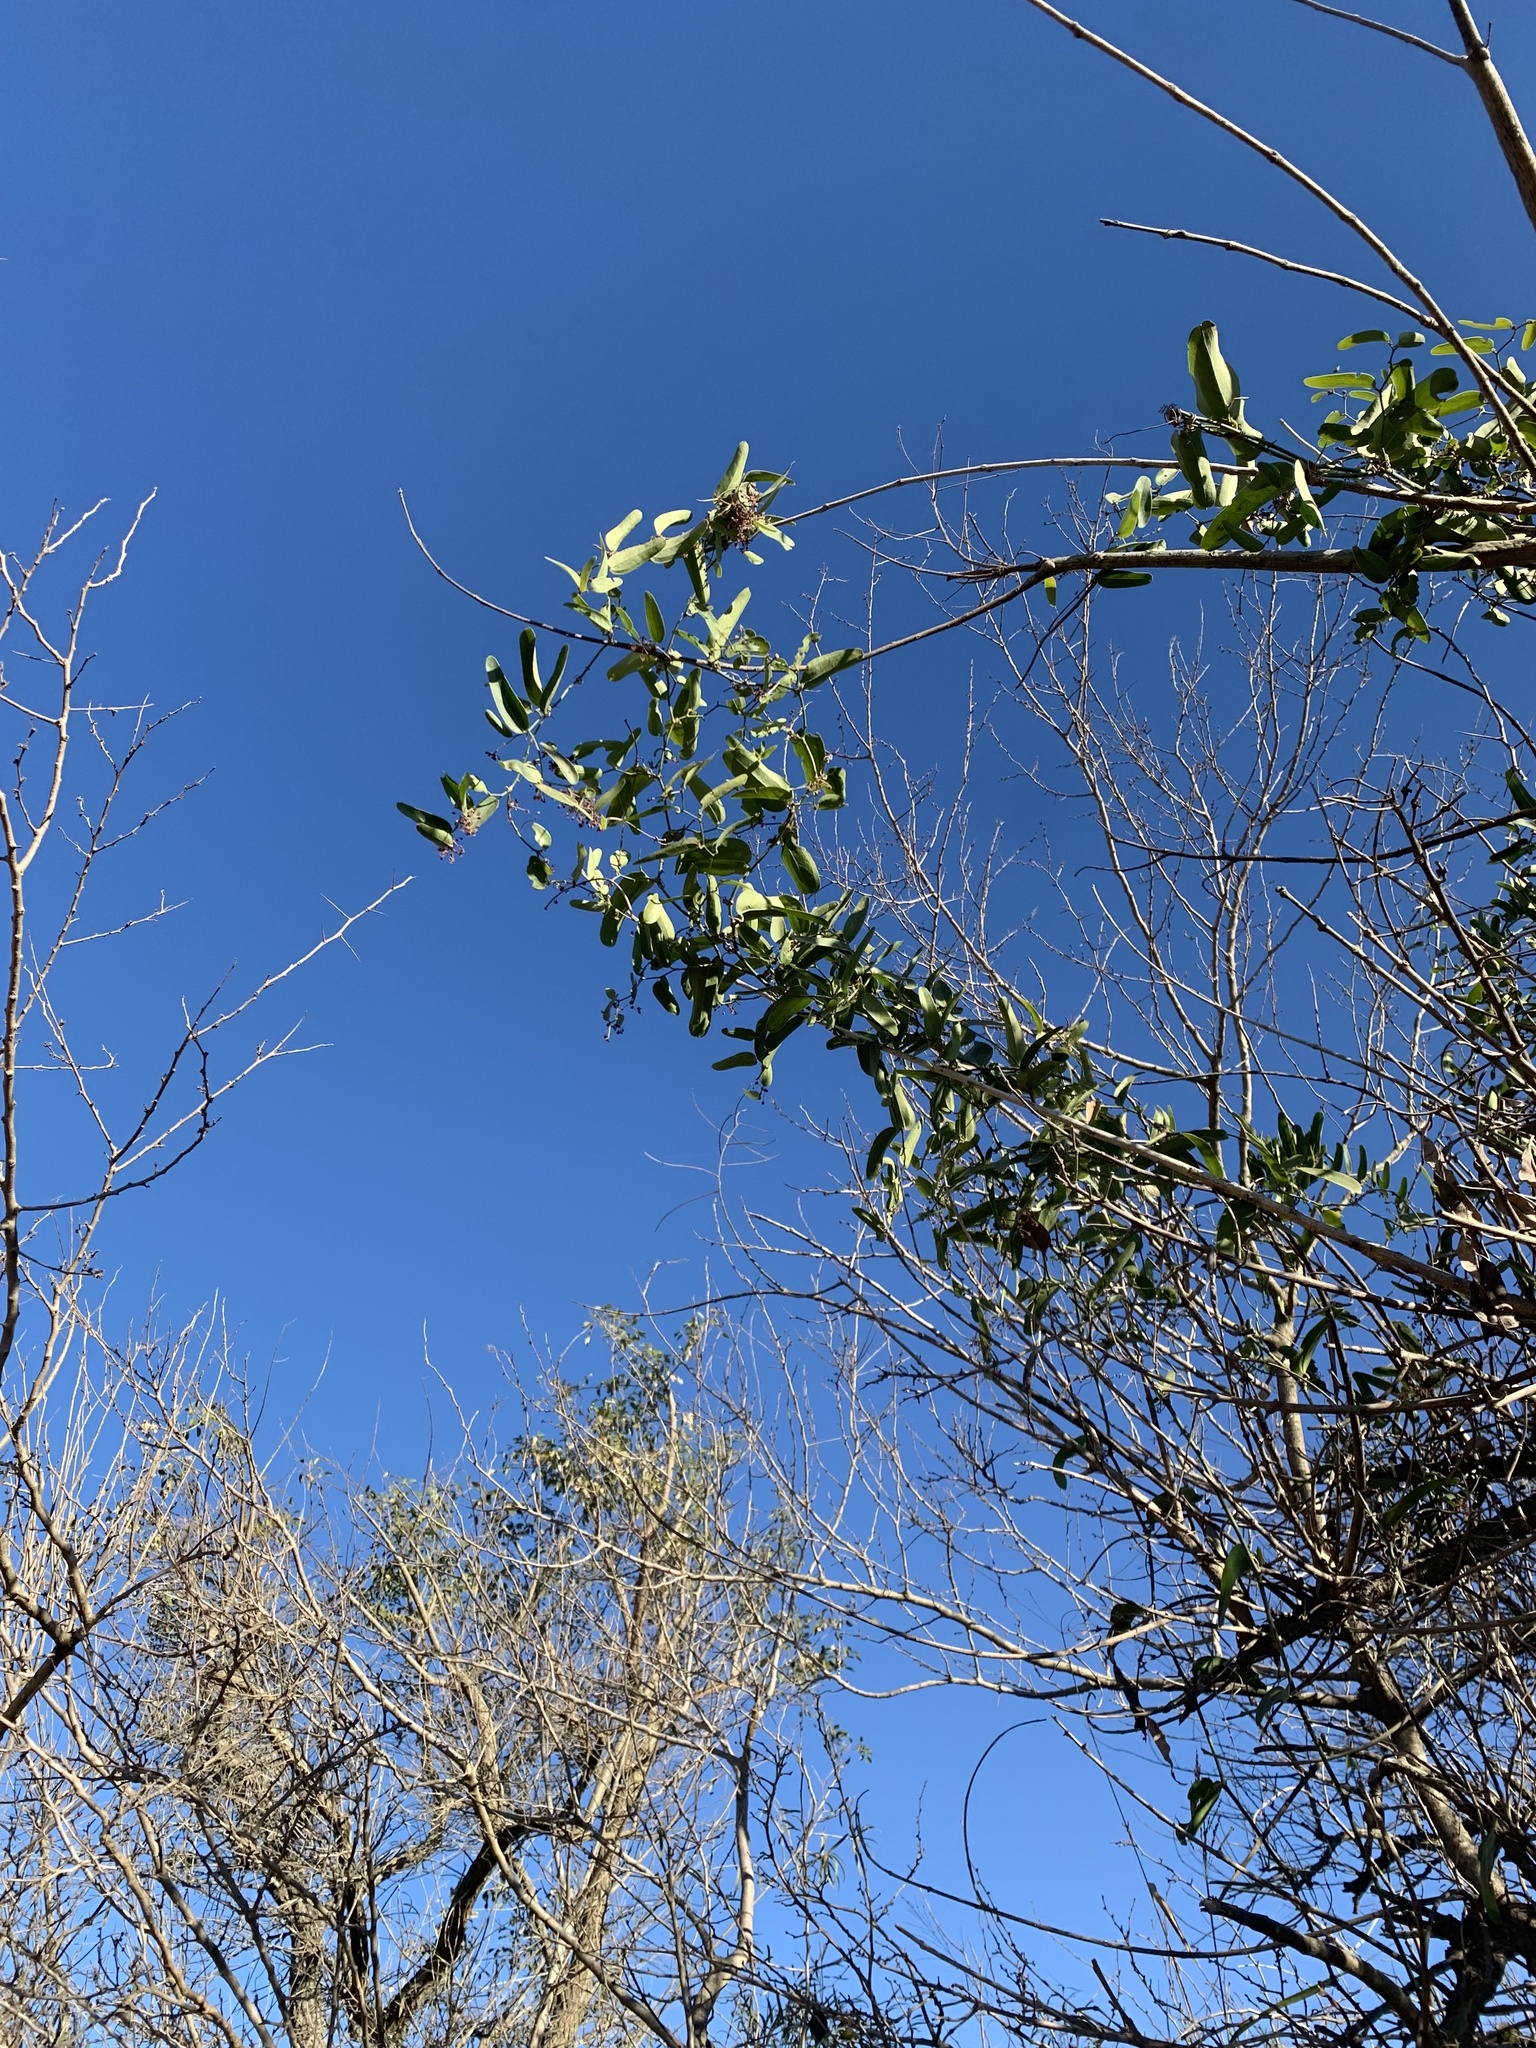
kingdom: Plantae
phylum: Tracheophyta
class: Liliopsida
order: Liliales
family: Smilacaceae
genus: Smilax
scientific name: Smilax campestris
